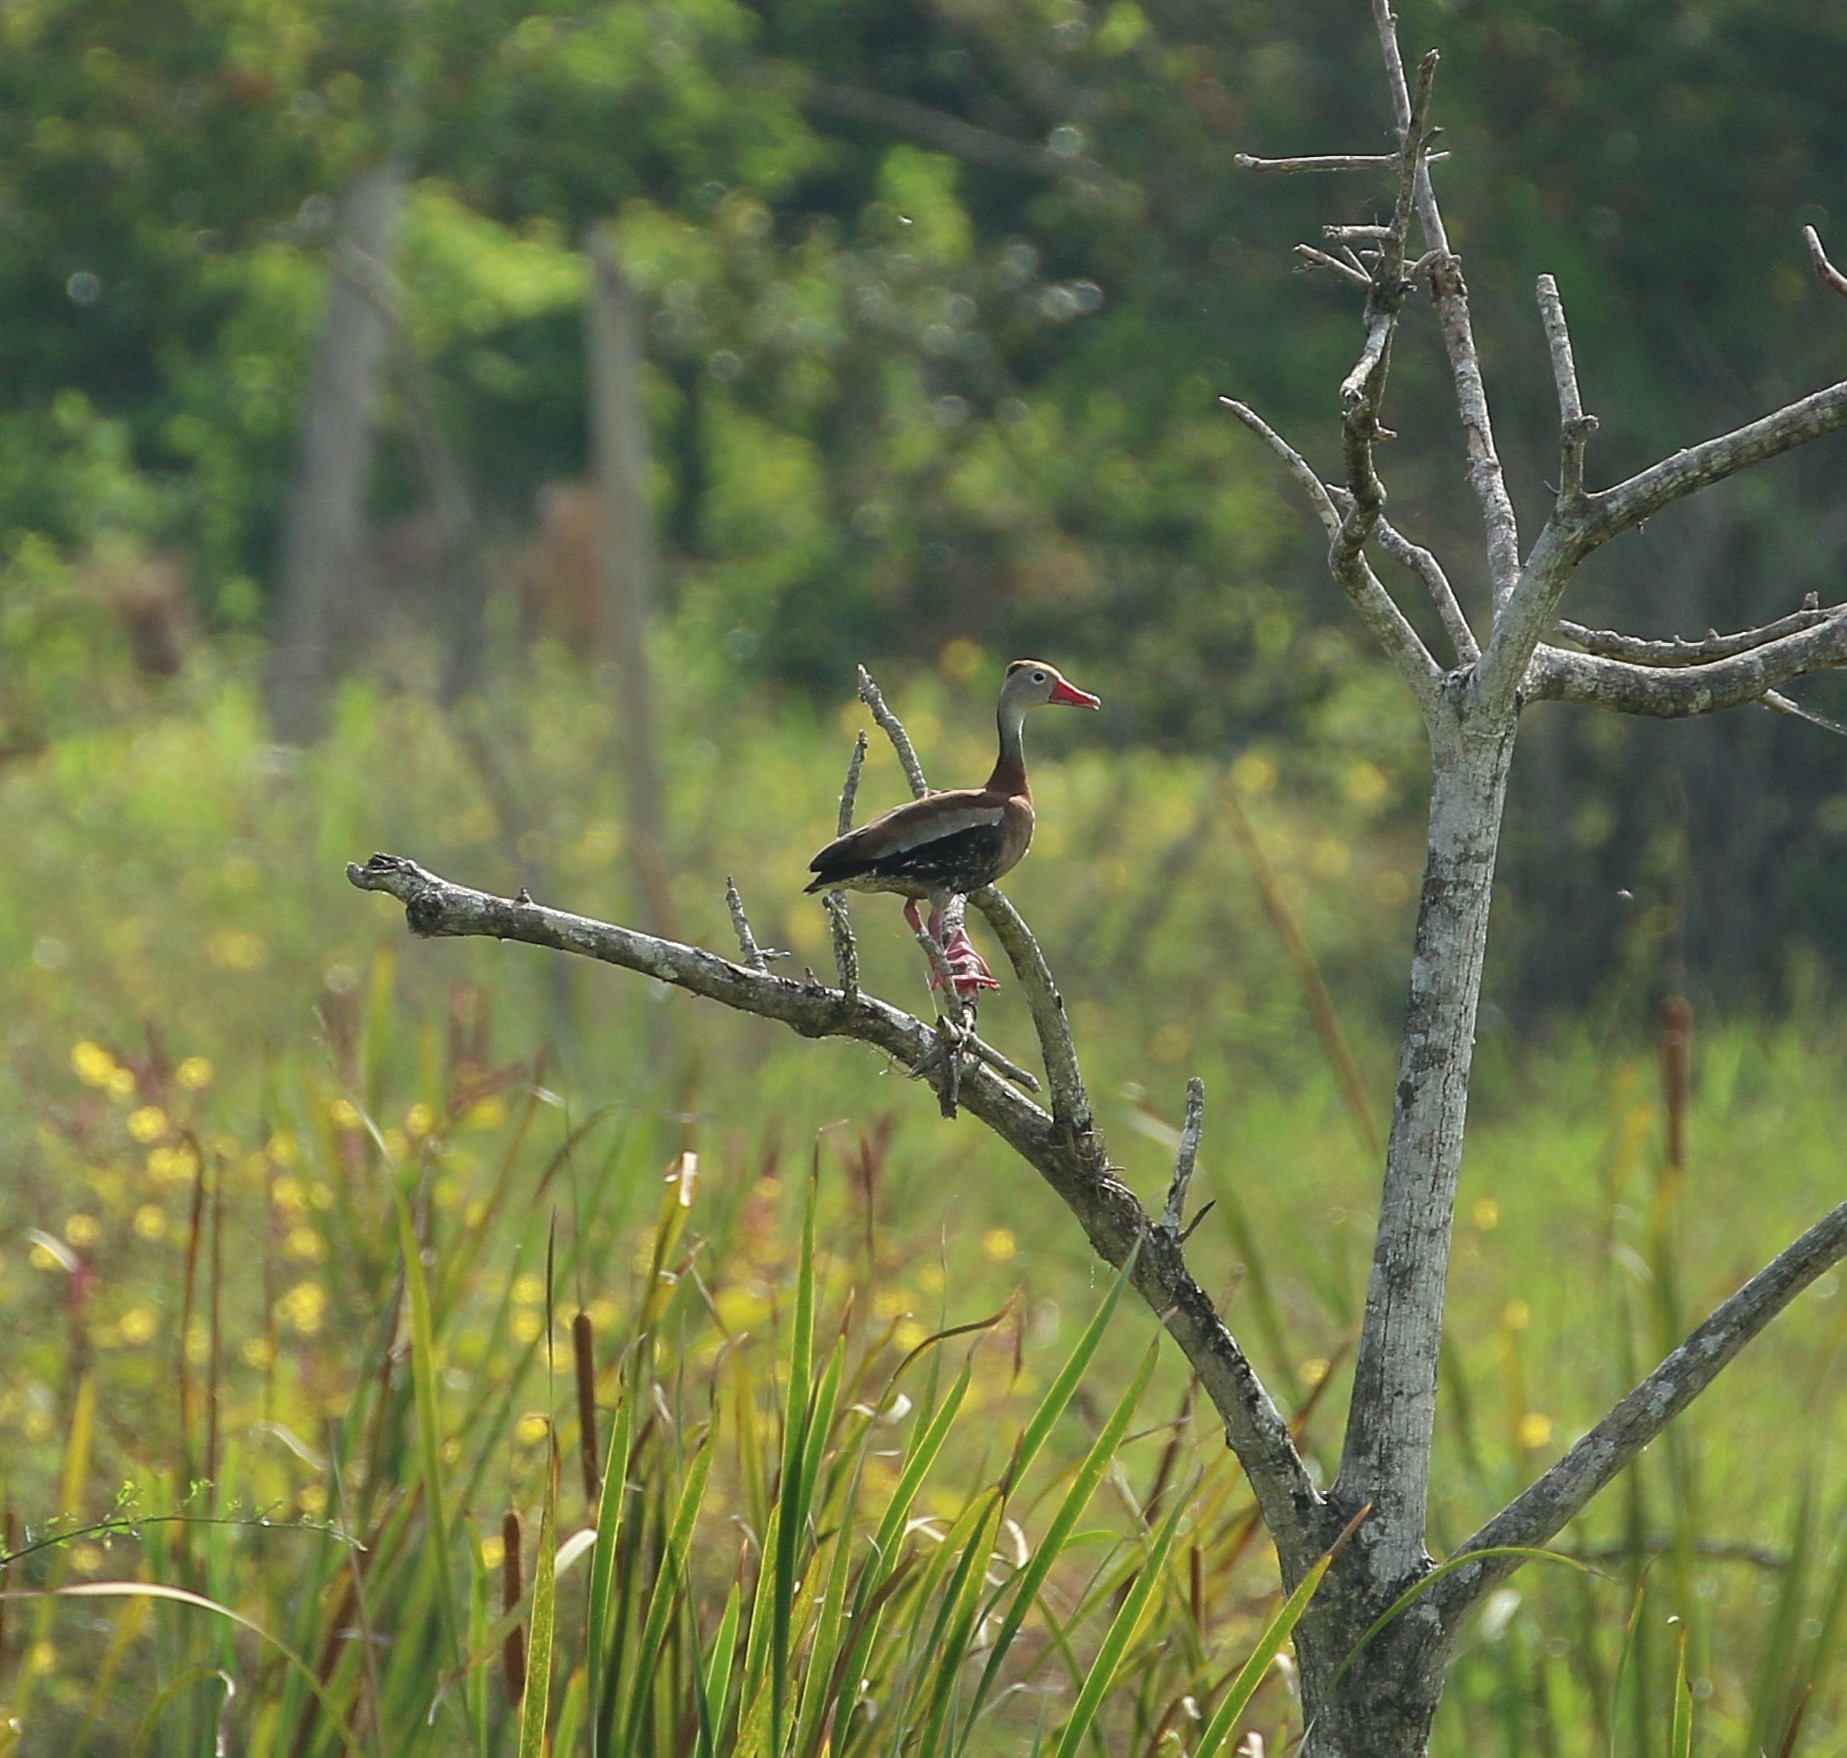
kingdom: Animalia
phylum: Chordata
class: Aves
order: Anseriformes
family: Anatidae
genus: Dendrocygna
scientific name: Dendrocygna autumnalis
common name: Black-bellied whistling duck
